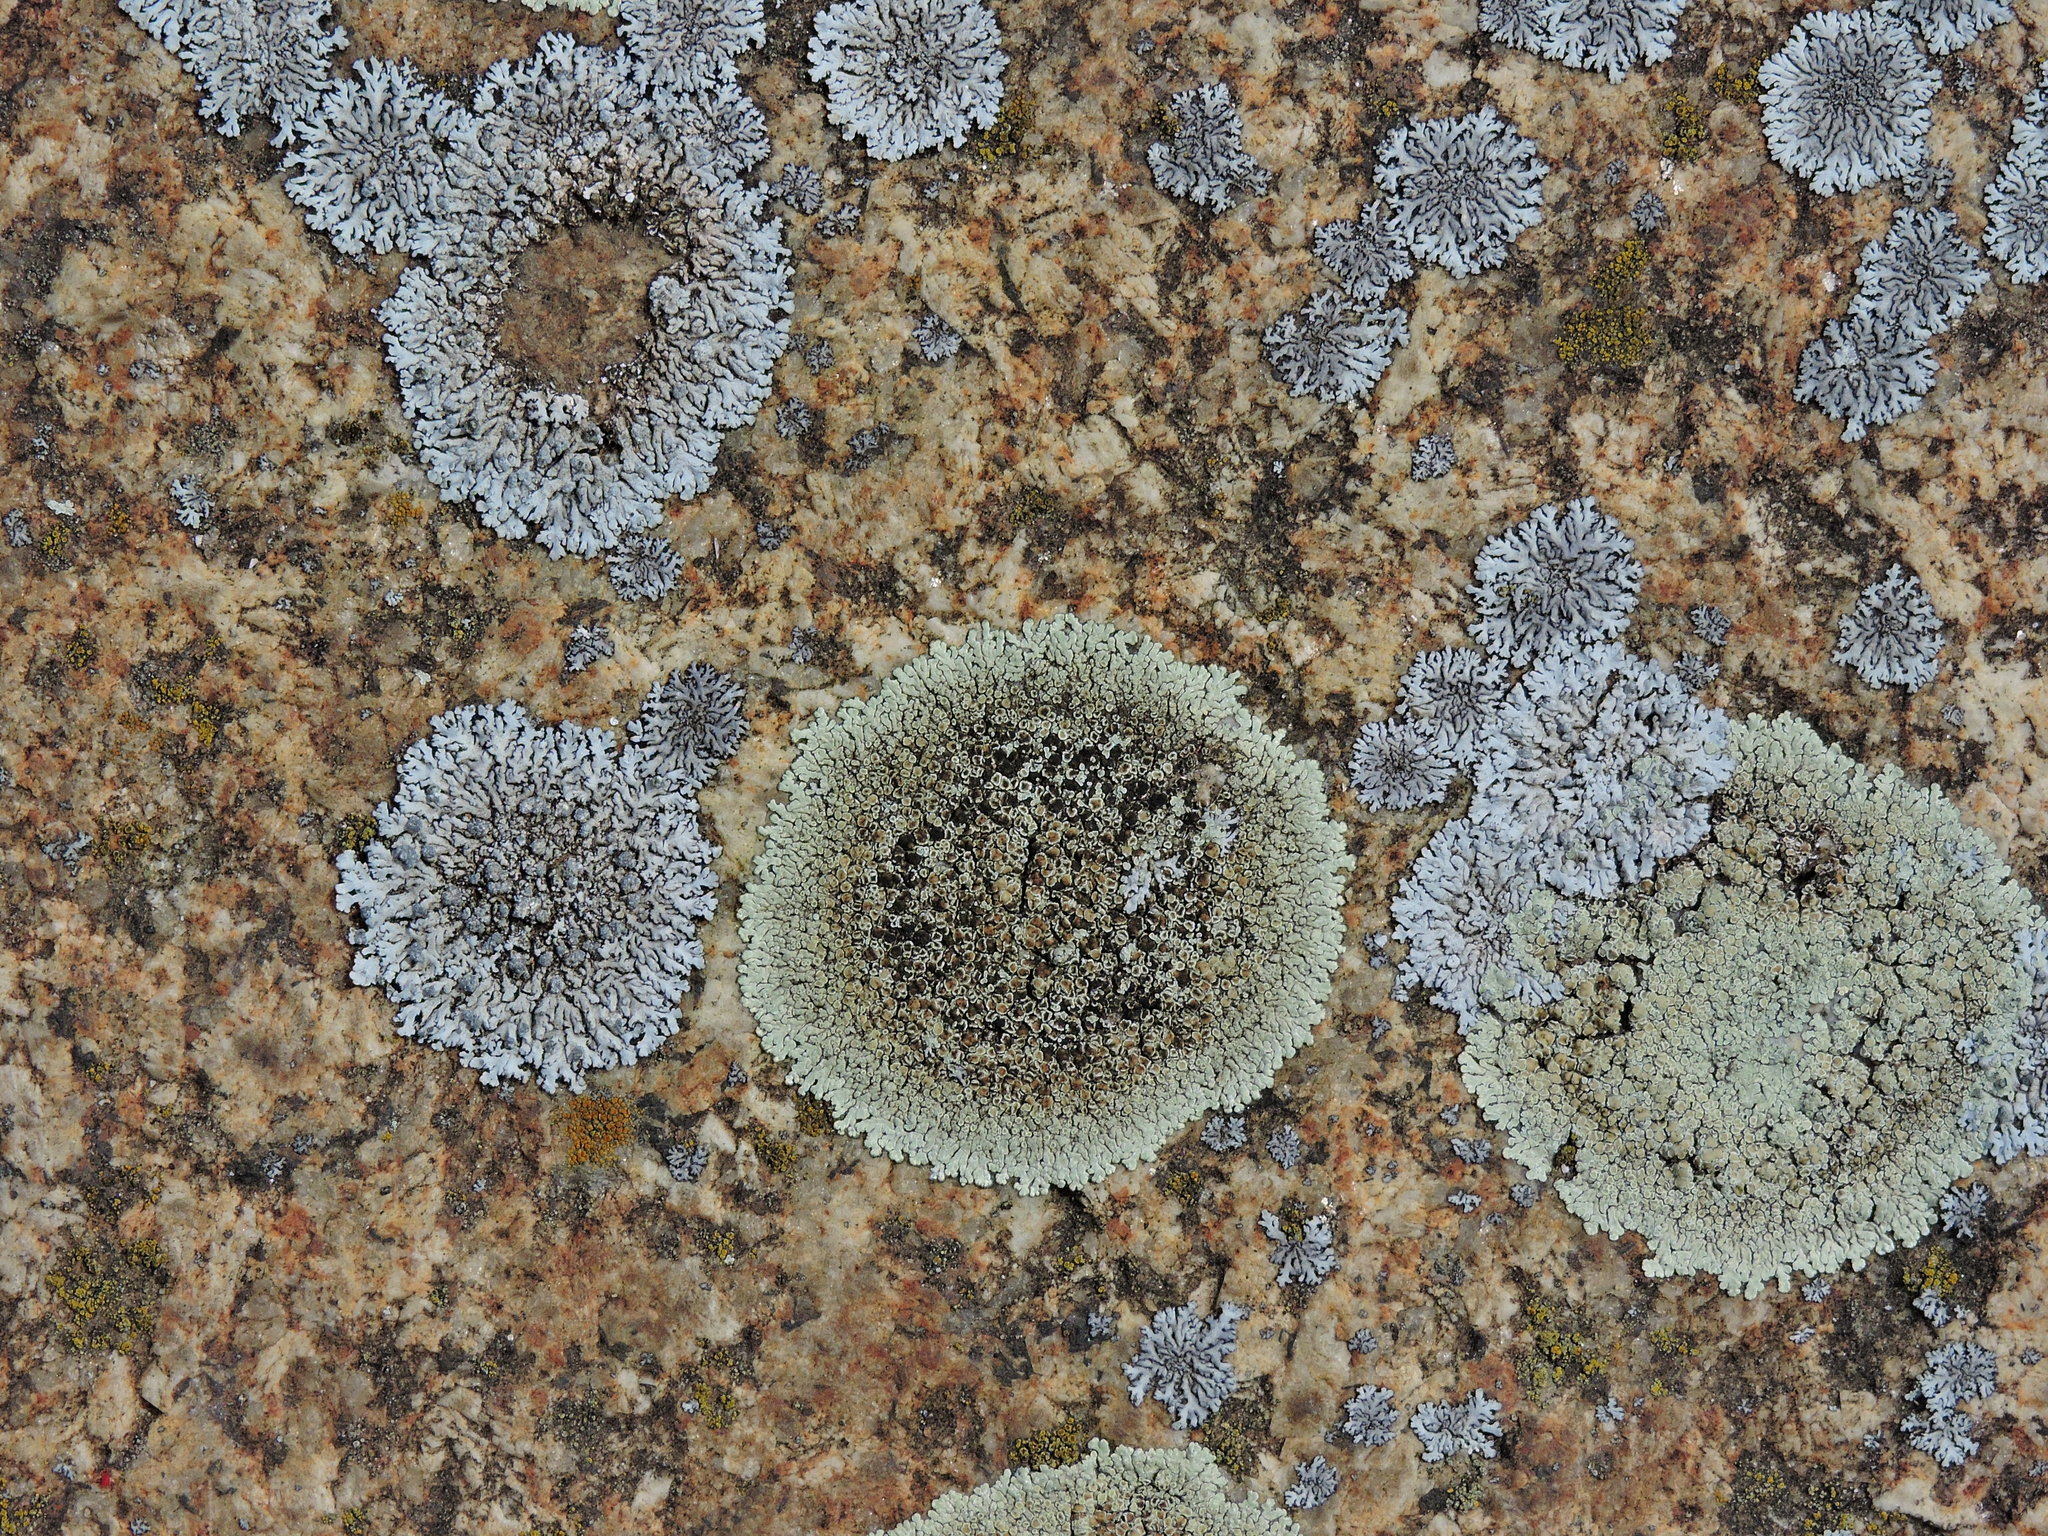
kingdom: Fungi
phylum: Ascomycota
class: Lecanoromycetes
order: Caliciales
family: Physciaceae
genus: Physcia
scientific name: Physcia caesia
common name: Blue-gray rosette lichen
